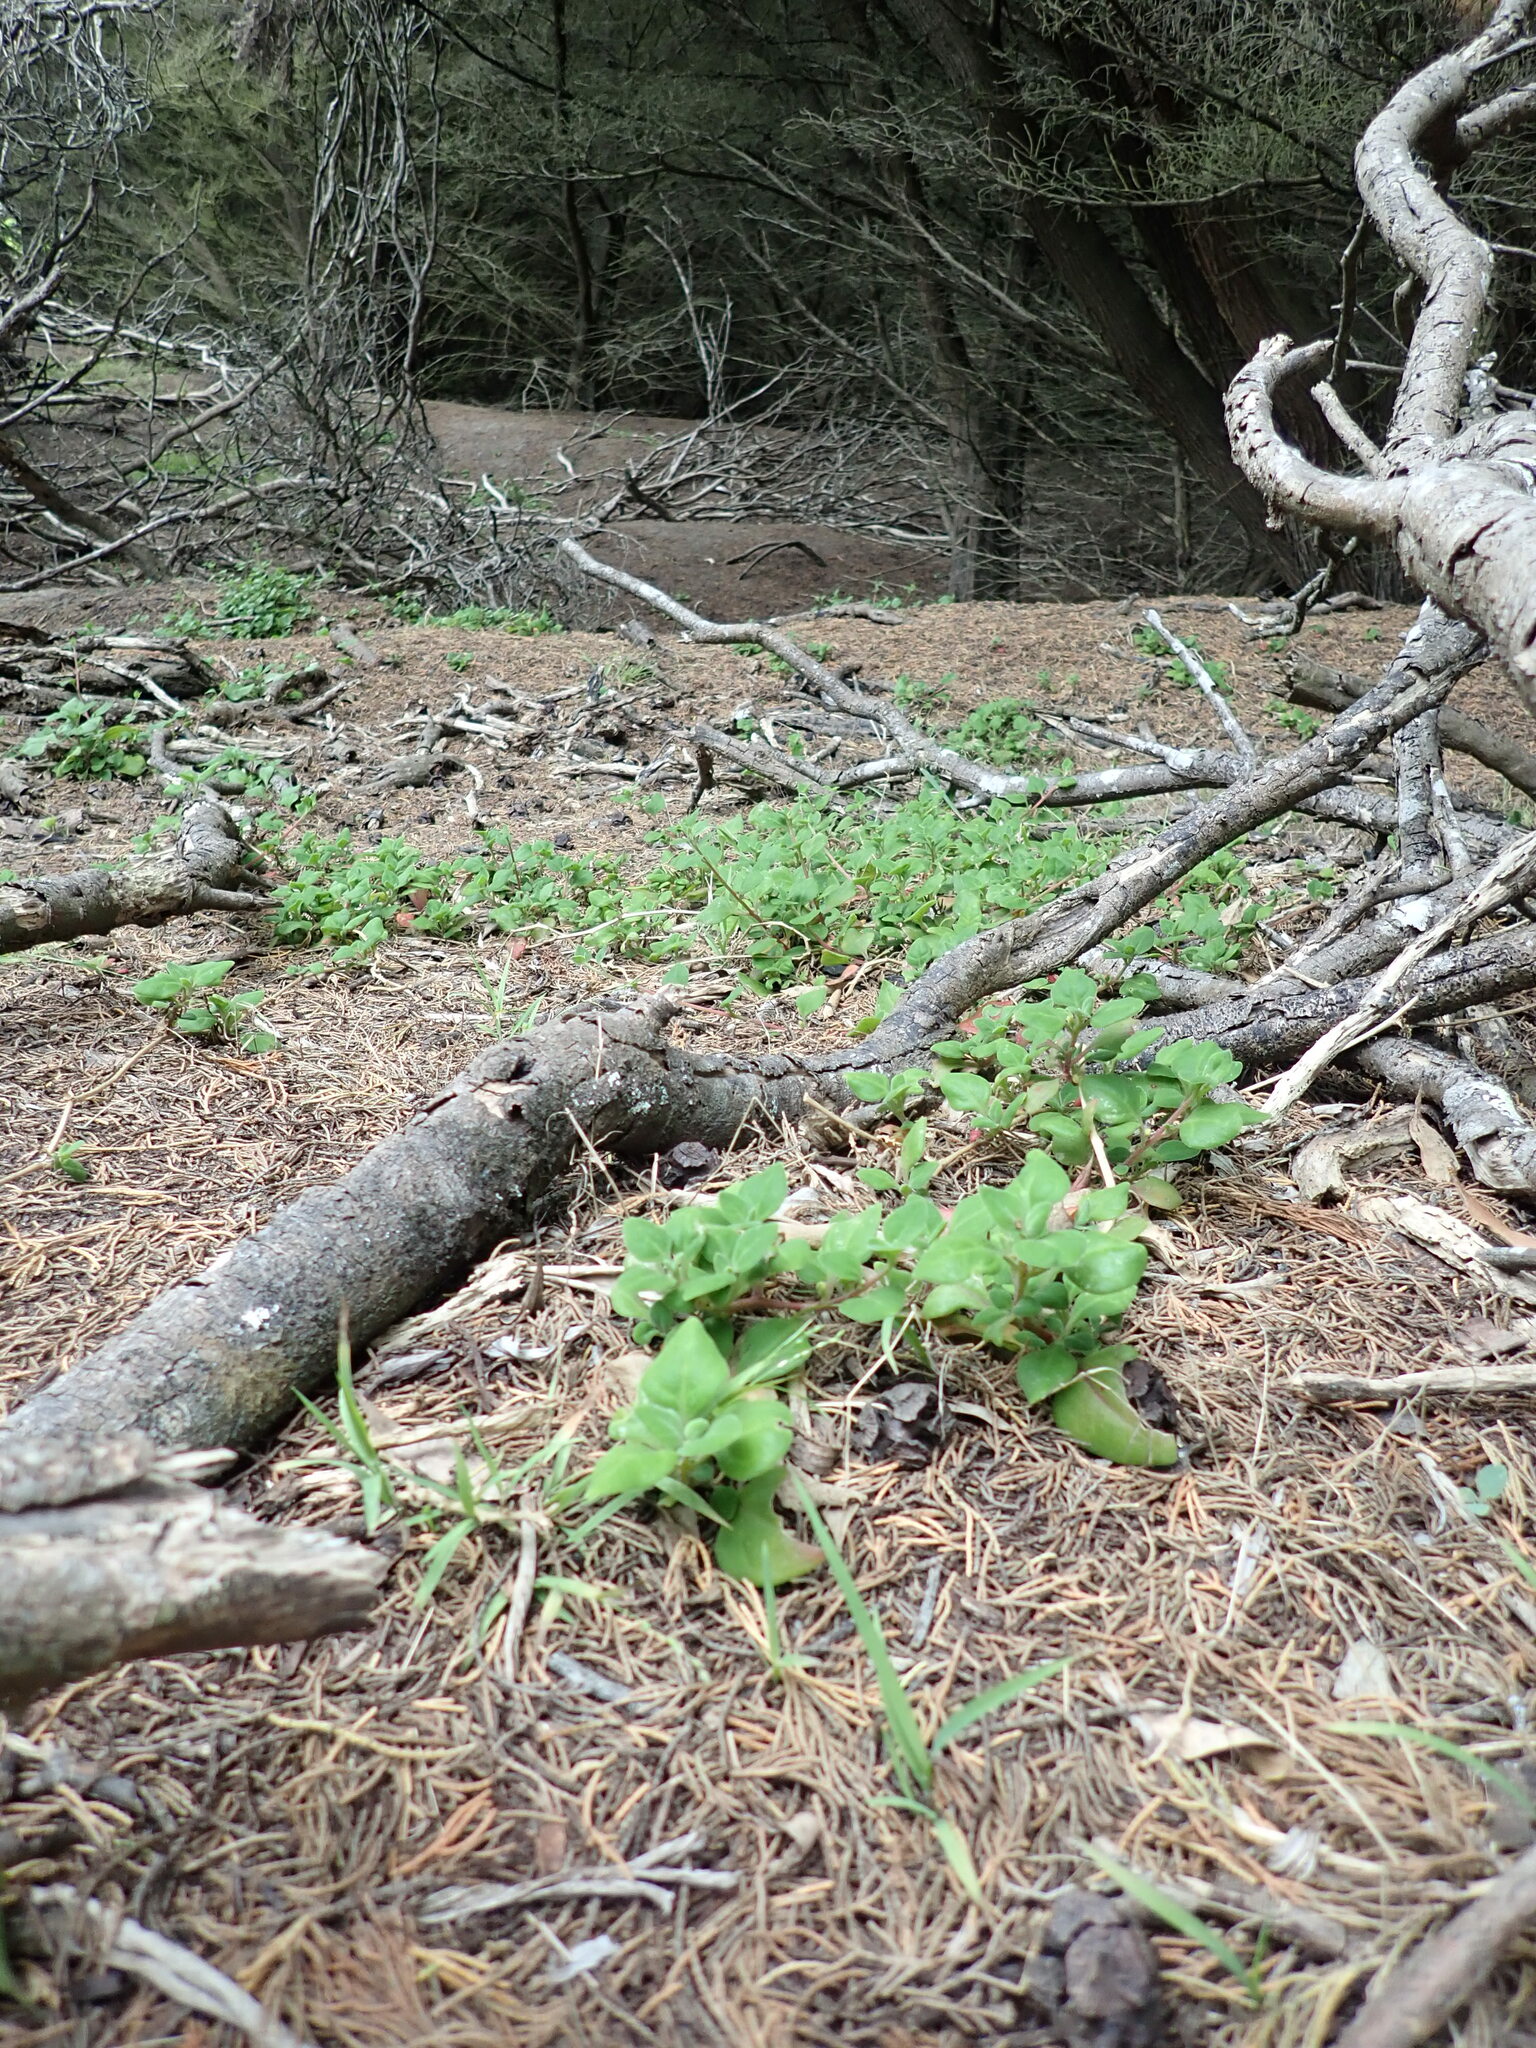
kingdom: Plantae
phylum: Tracheophyta
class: Magnoliopsida
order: Caryophyllales
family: Aizoaceae
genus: Tetragonia
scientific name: Tetragonia implexicoma
